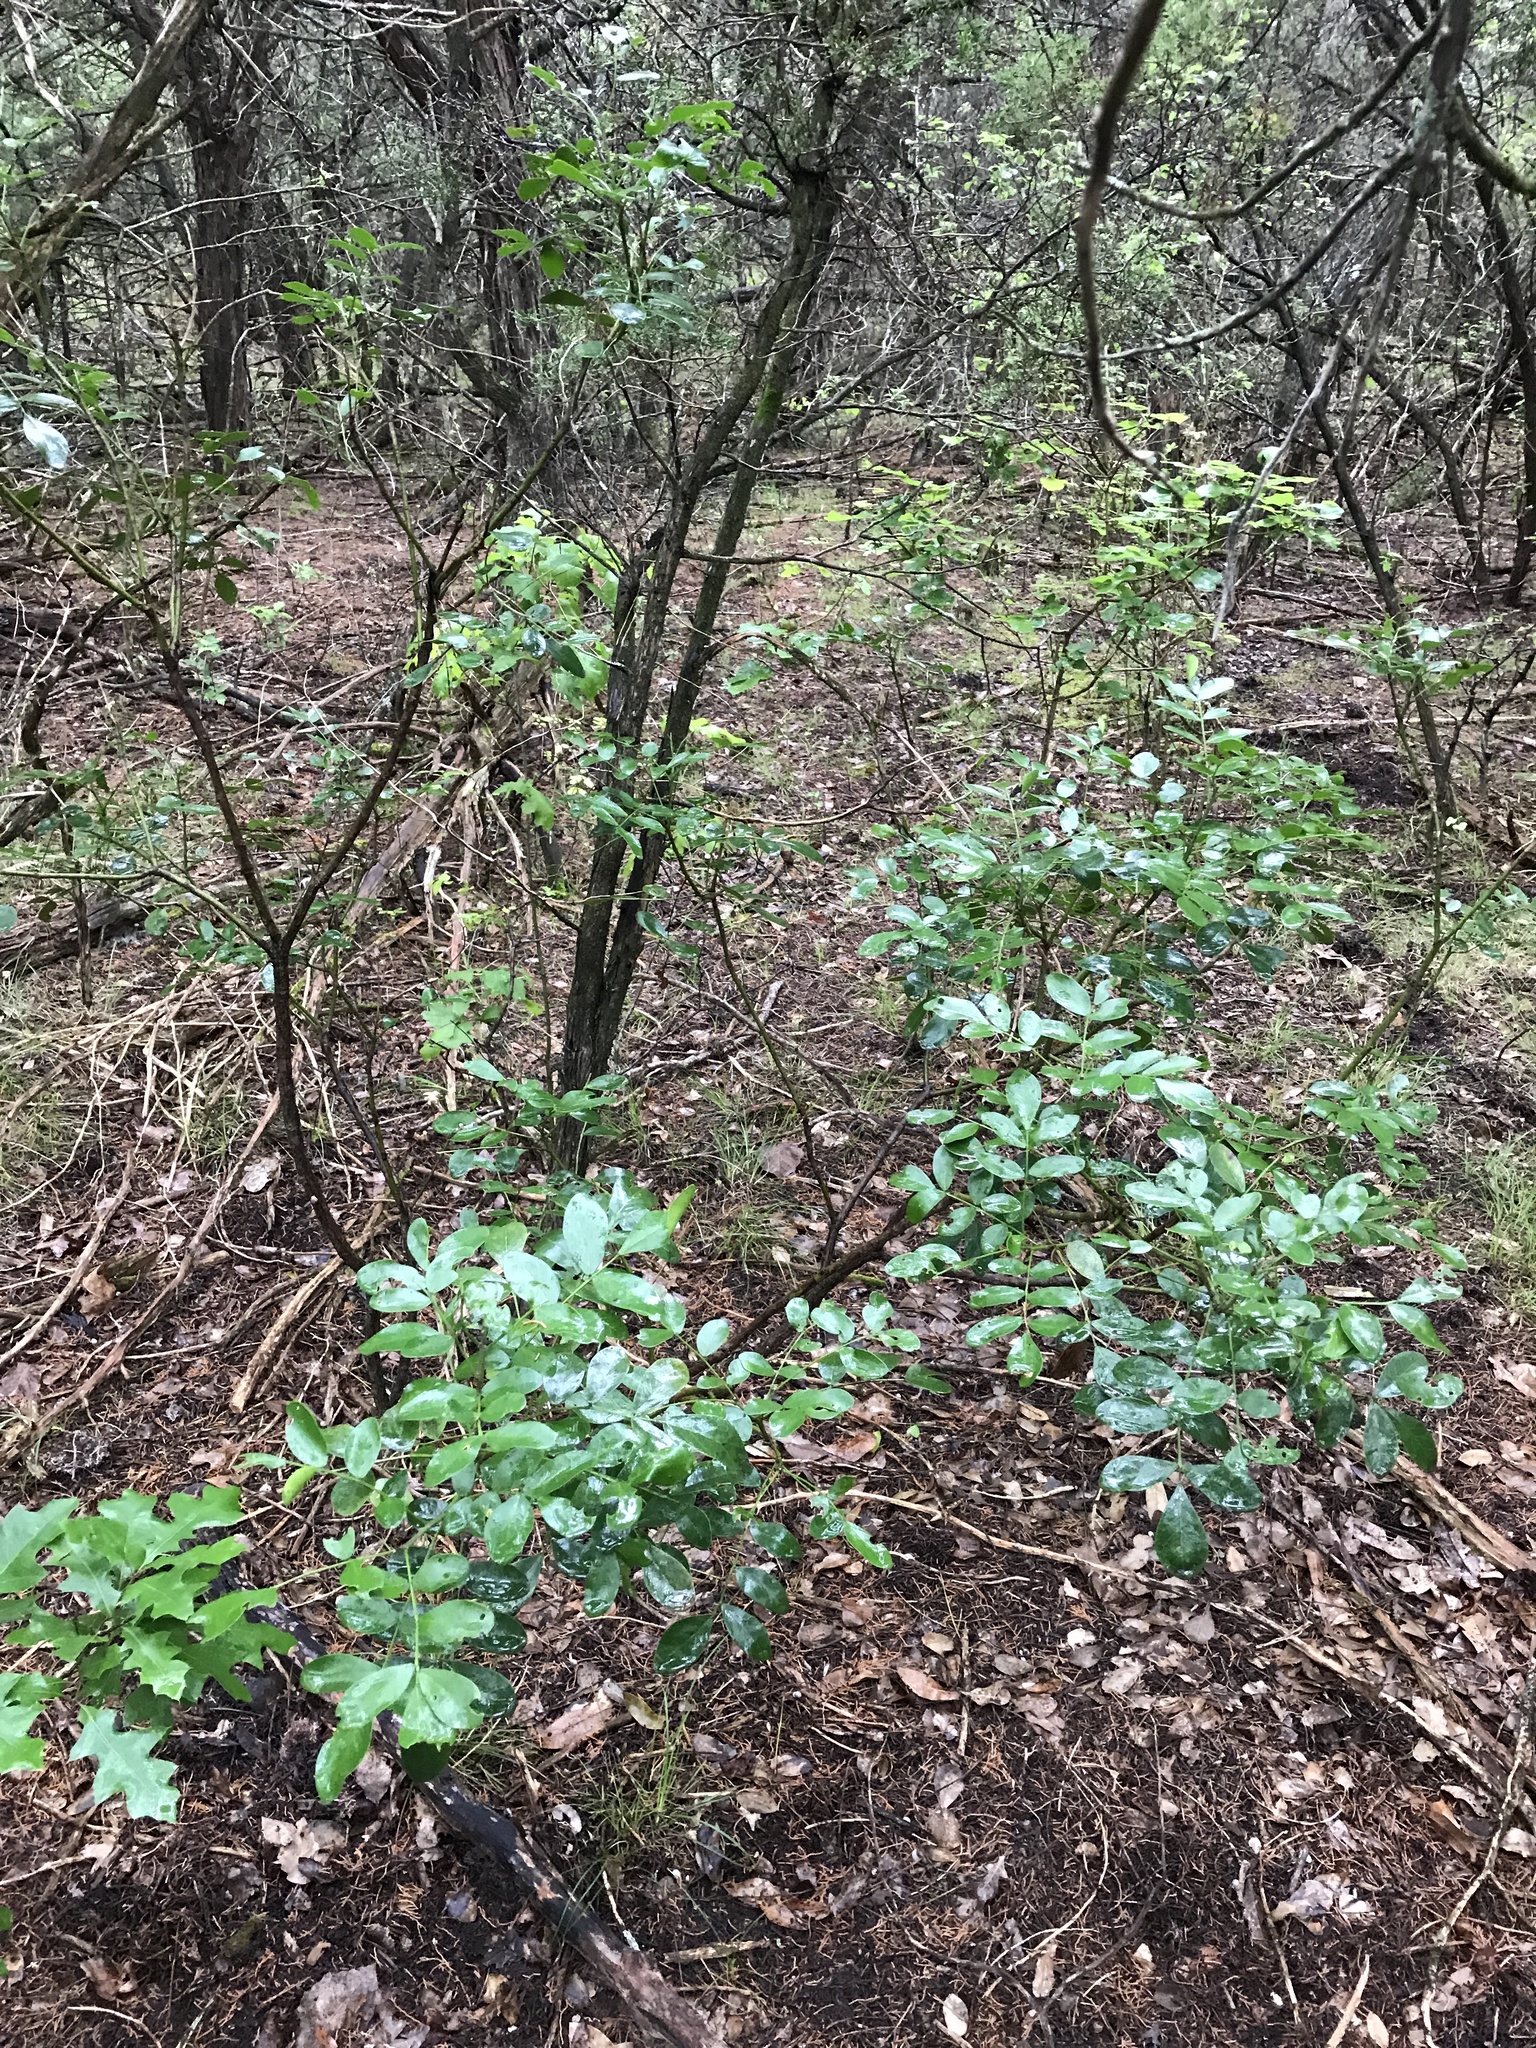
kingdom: Plantae
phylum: Tracheophyta
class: Magnoliopsida
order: Fabales
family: Fabaceae
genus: Dermatophyllum
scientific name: Dermatophyllum secundiflorum
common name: Texas-mountain-laurel
